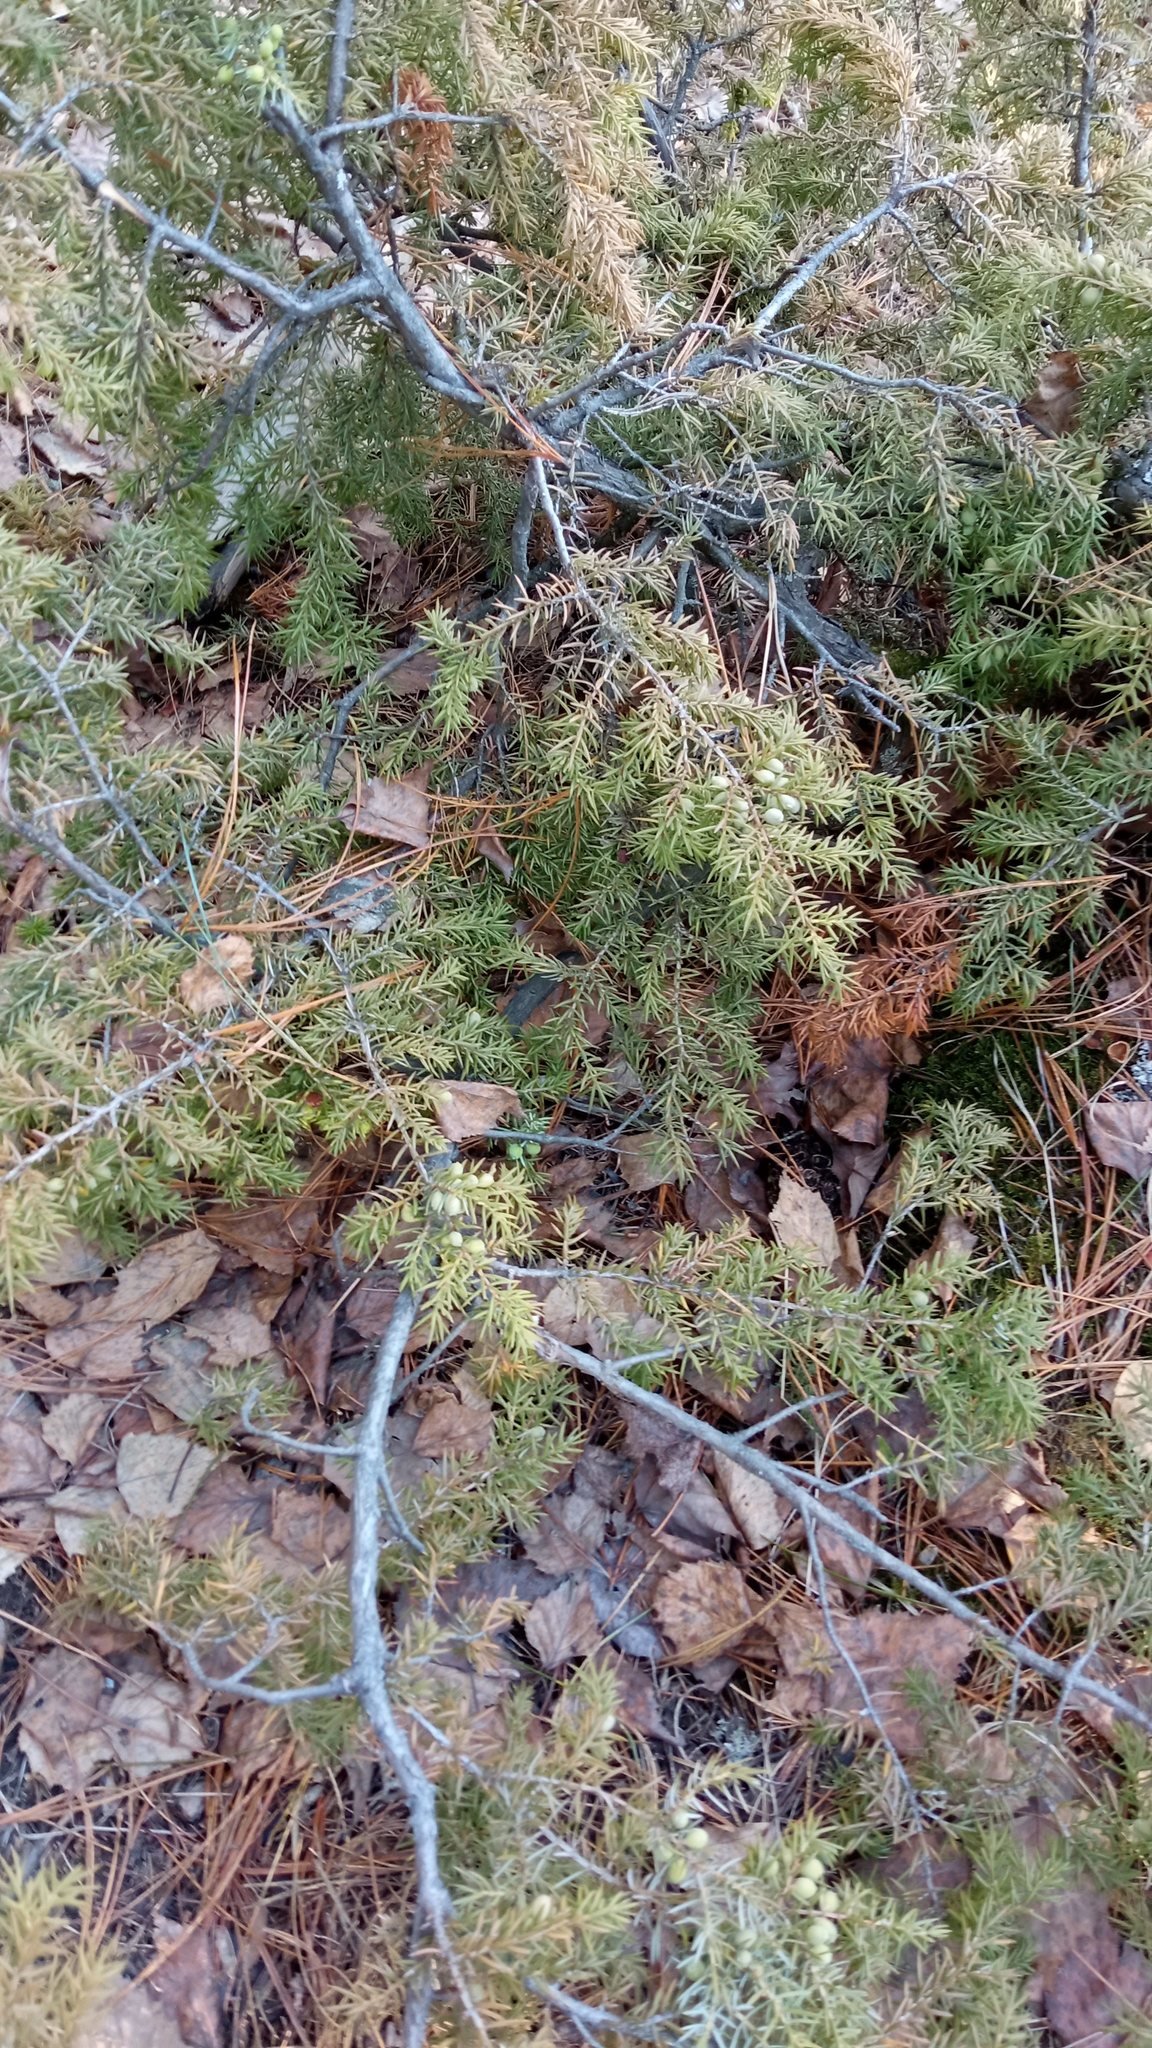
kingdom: Plantae
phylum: Tracheophyta
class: Pinopsida
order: Pinales
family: Cupressaceae
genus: Juniperus
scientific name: Juniperus communis
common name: Common juniper
